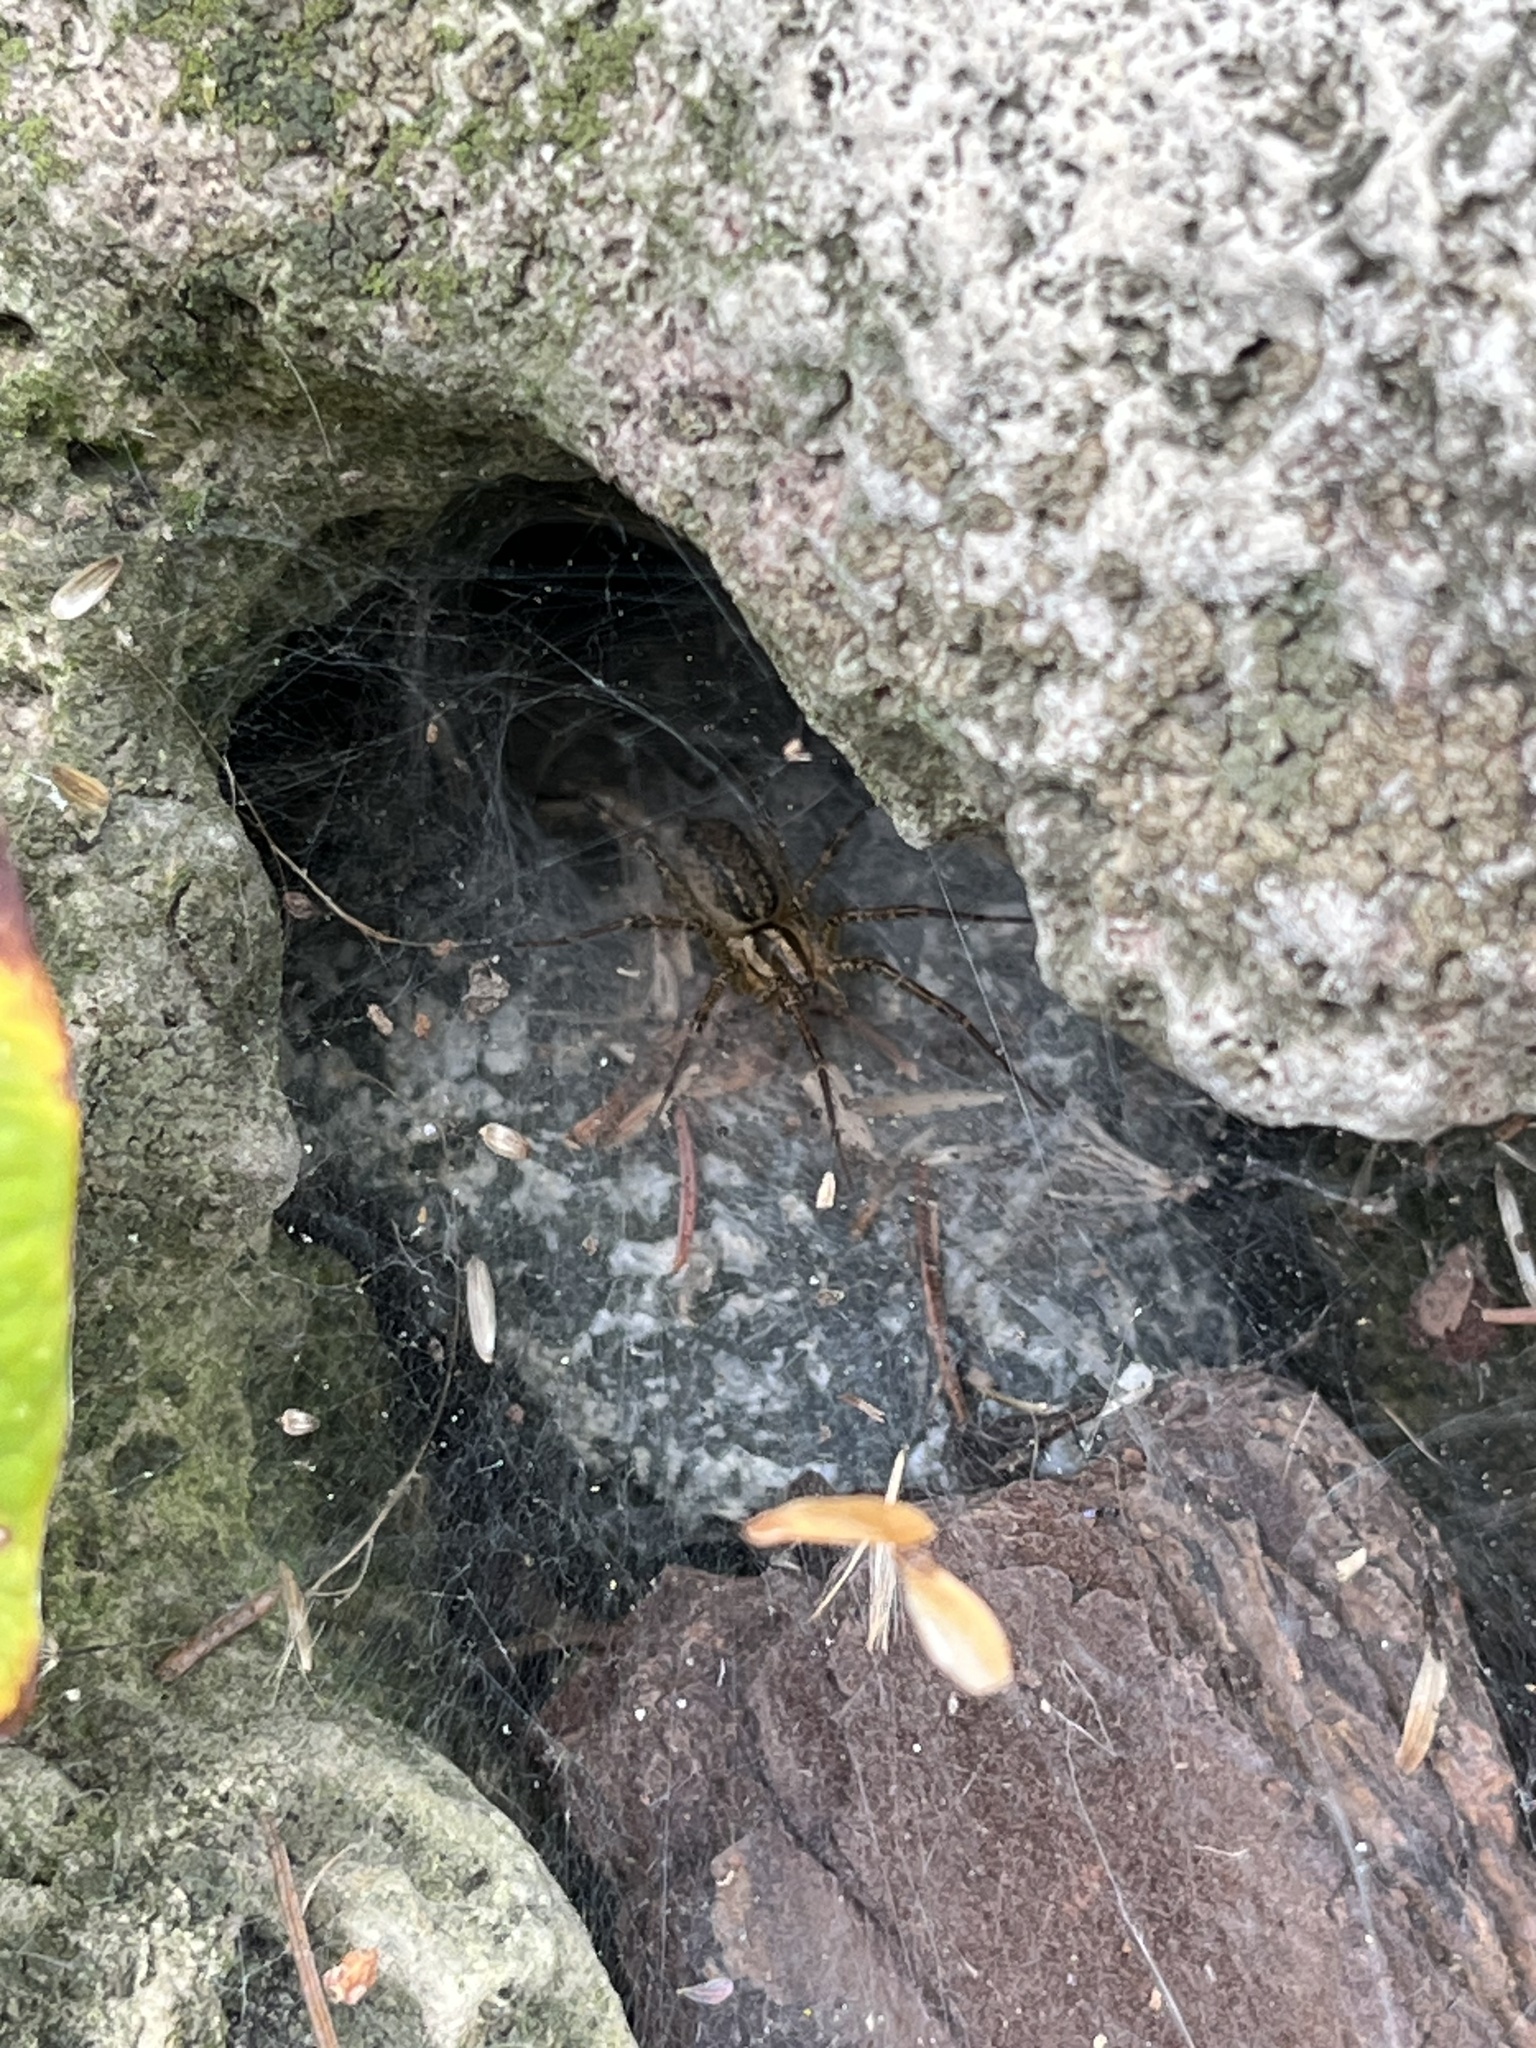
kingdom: Animalia
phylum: Arthropoda
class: Arachnida
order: Araneae
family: Agelenidae
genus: Agelenopsis
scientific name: Agelenopsis
